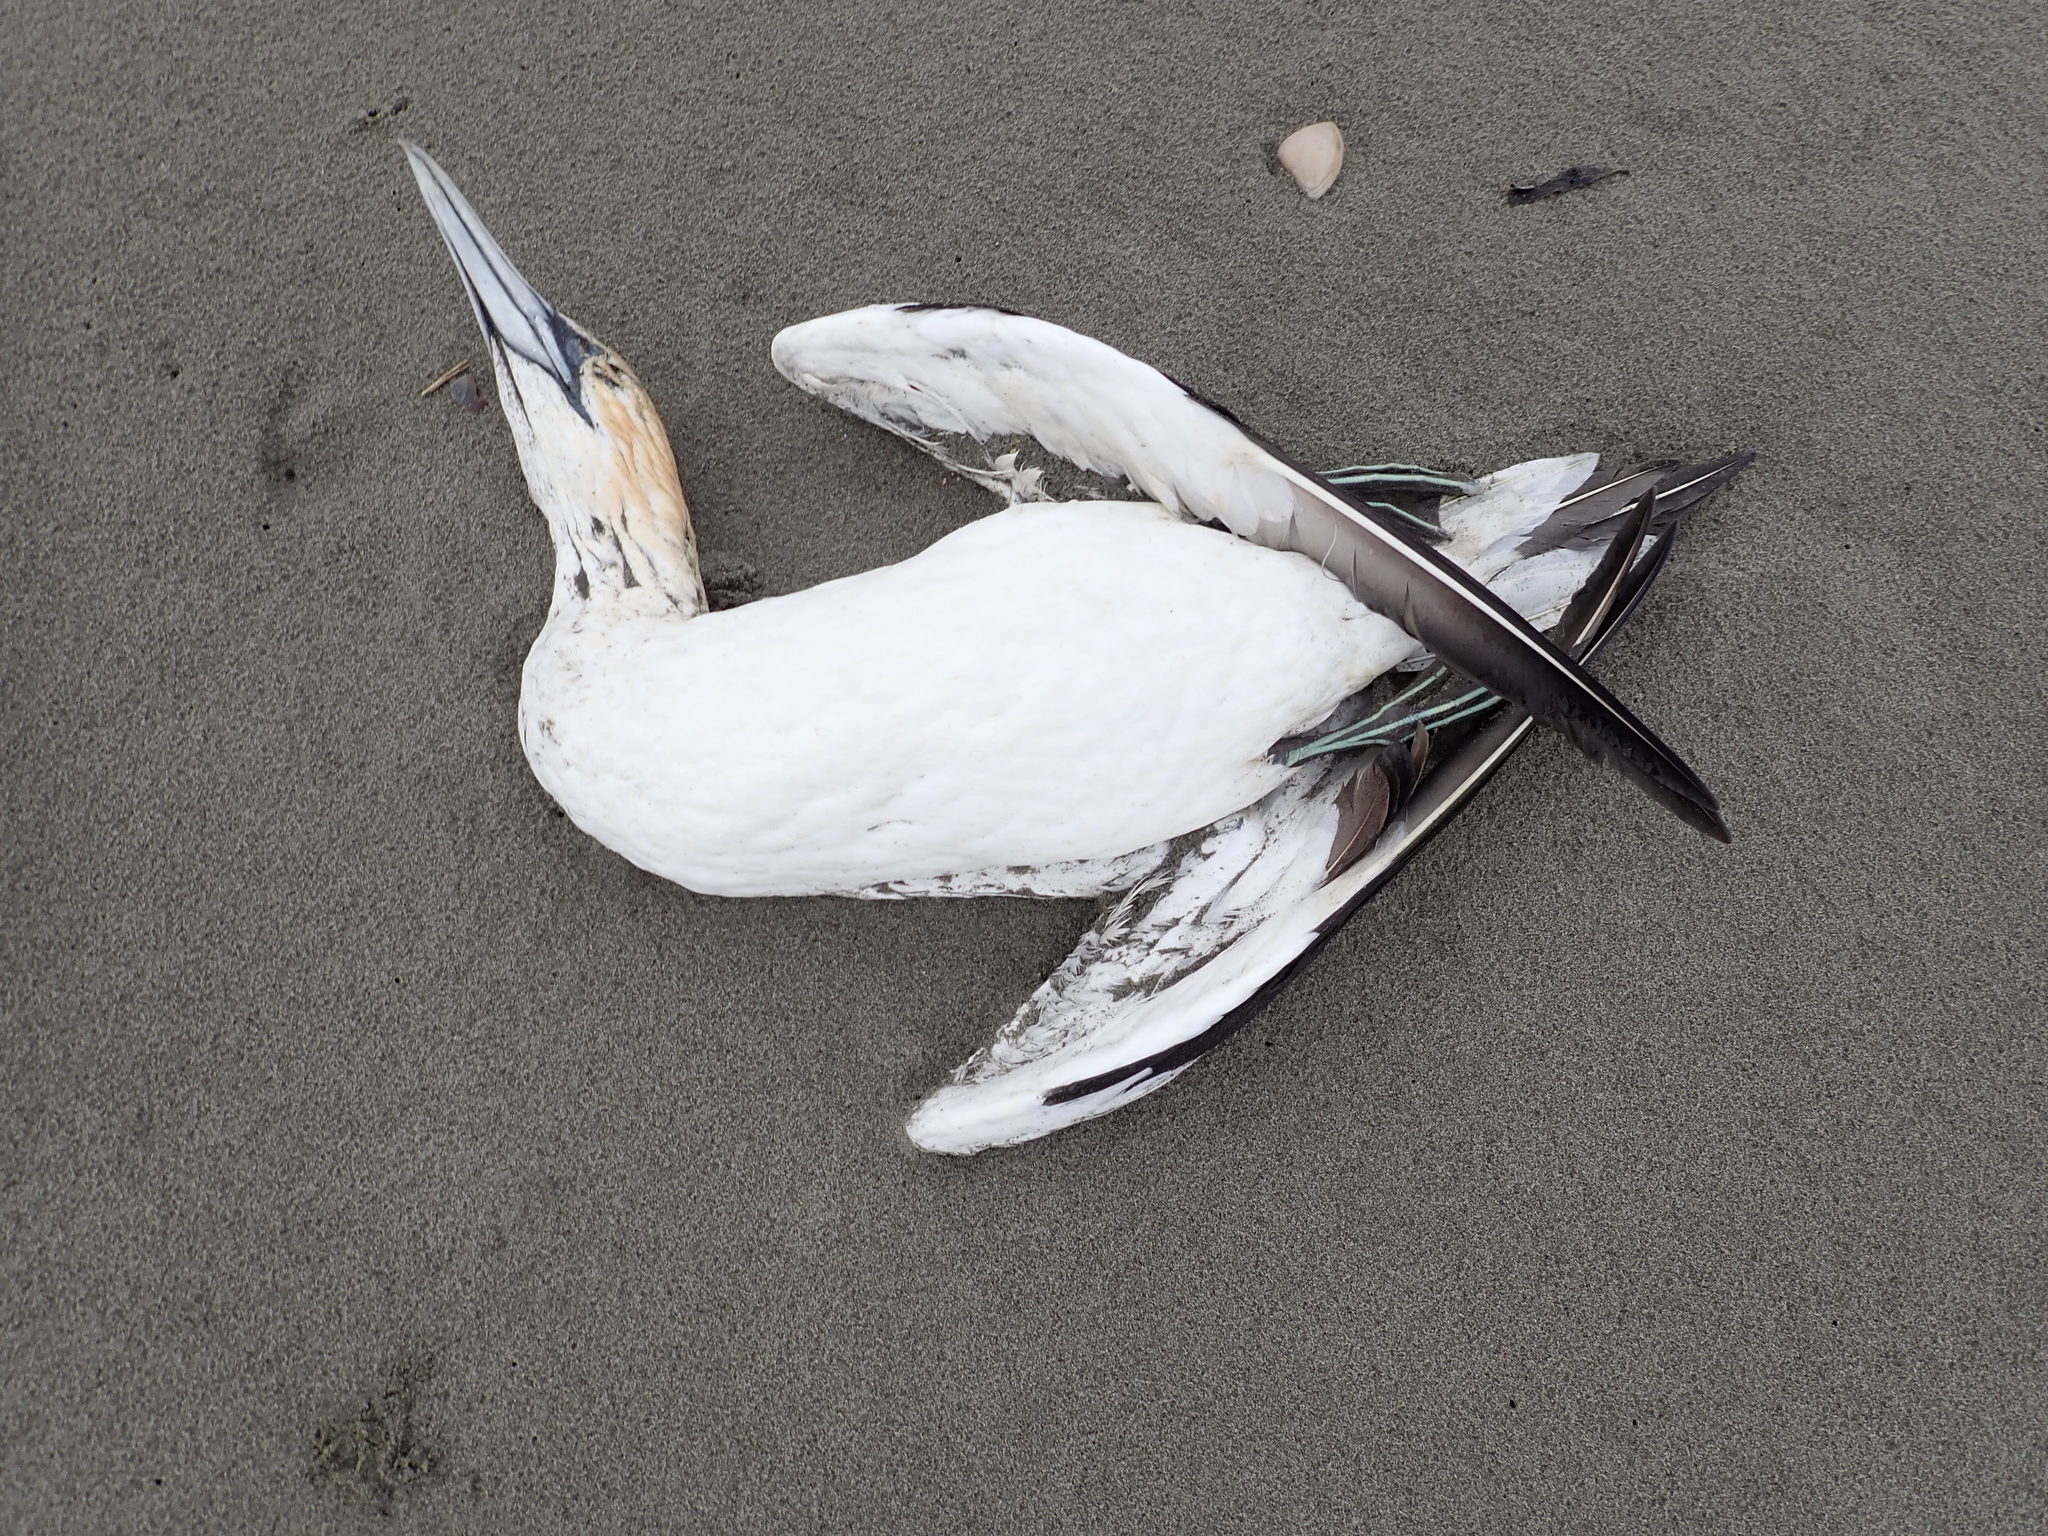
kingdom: Animalia
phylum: Chordata
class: Aves
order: Suliformes
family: Sulidae
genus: Morus
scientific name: Morus serrator
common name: Australasian gannet
